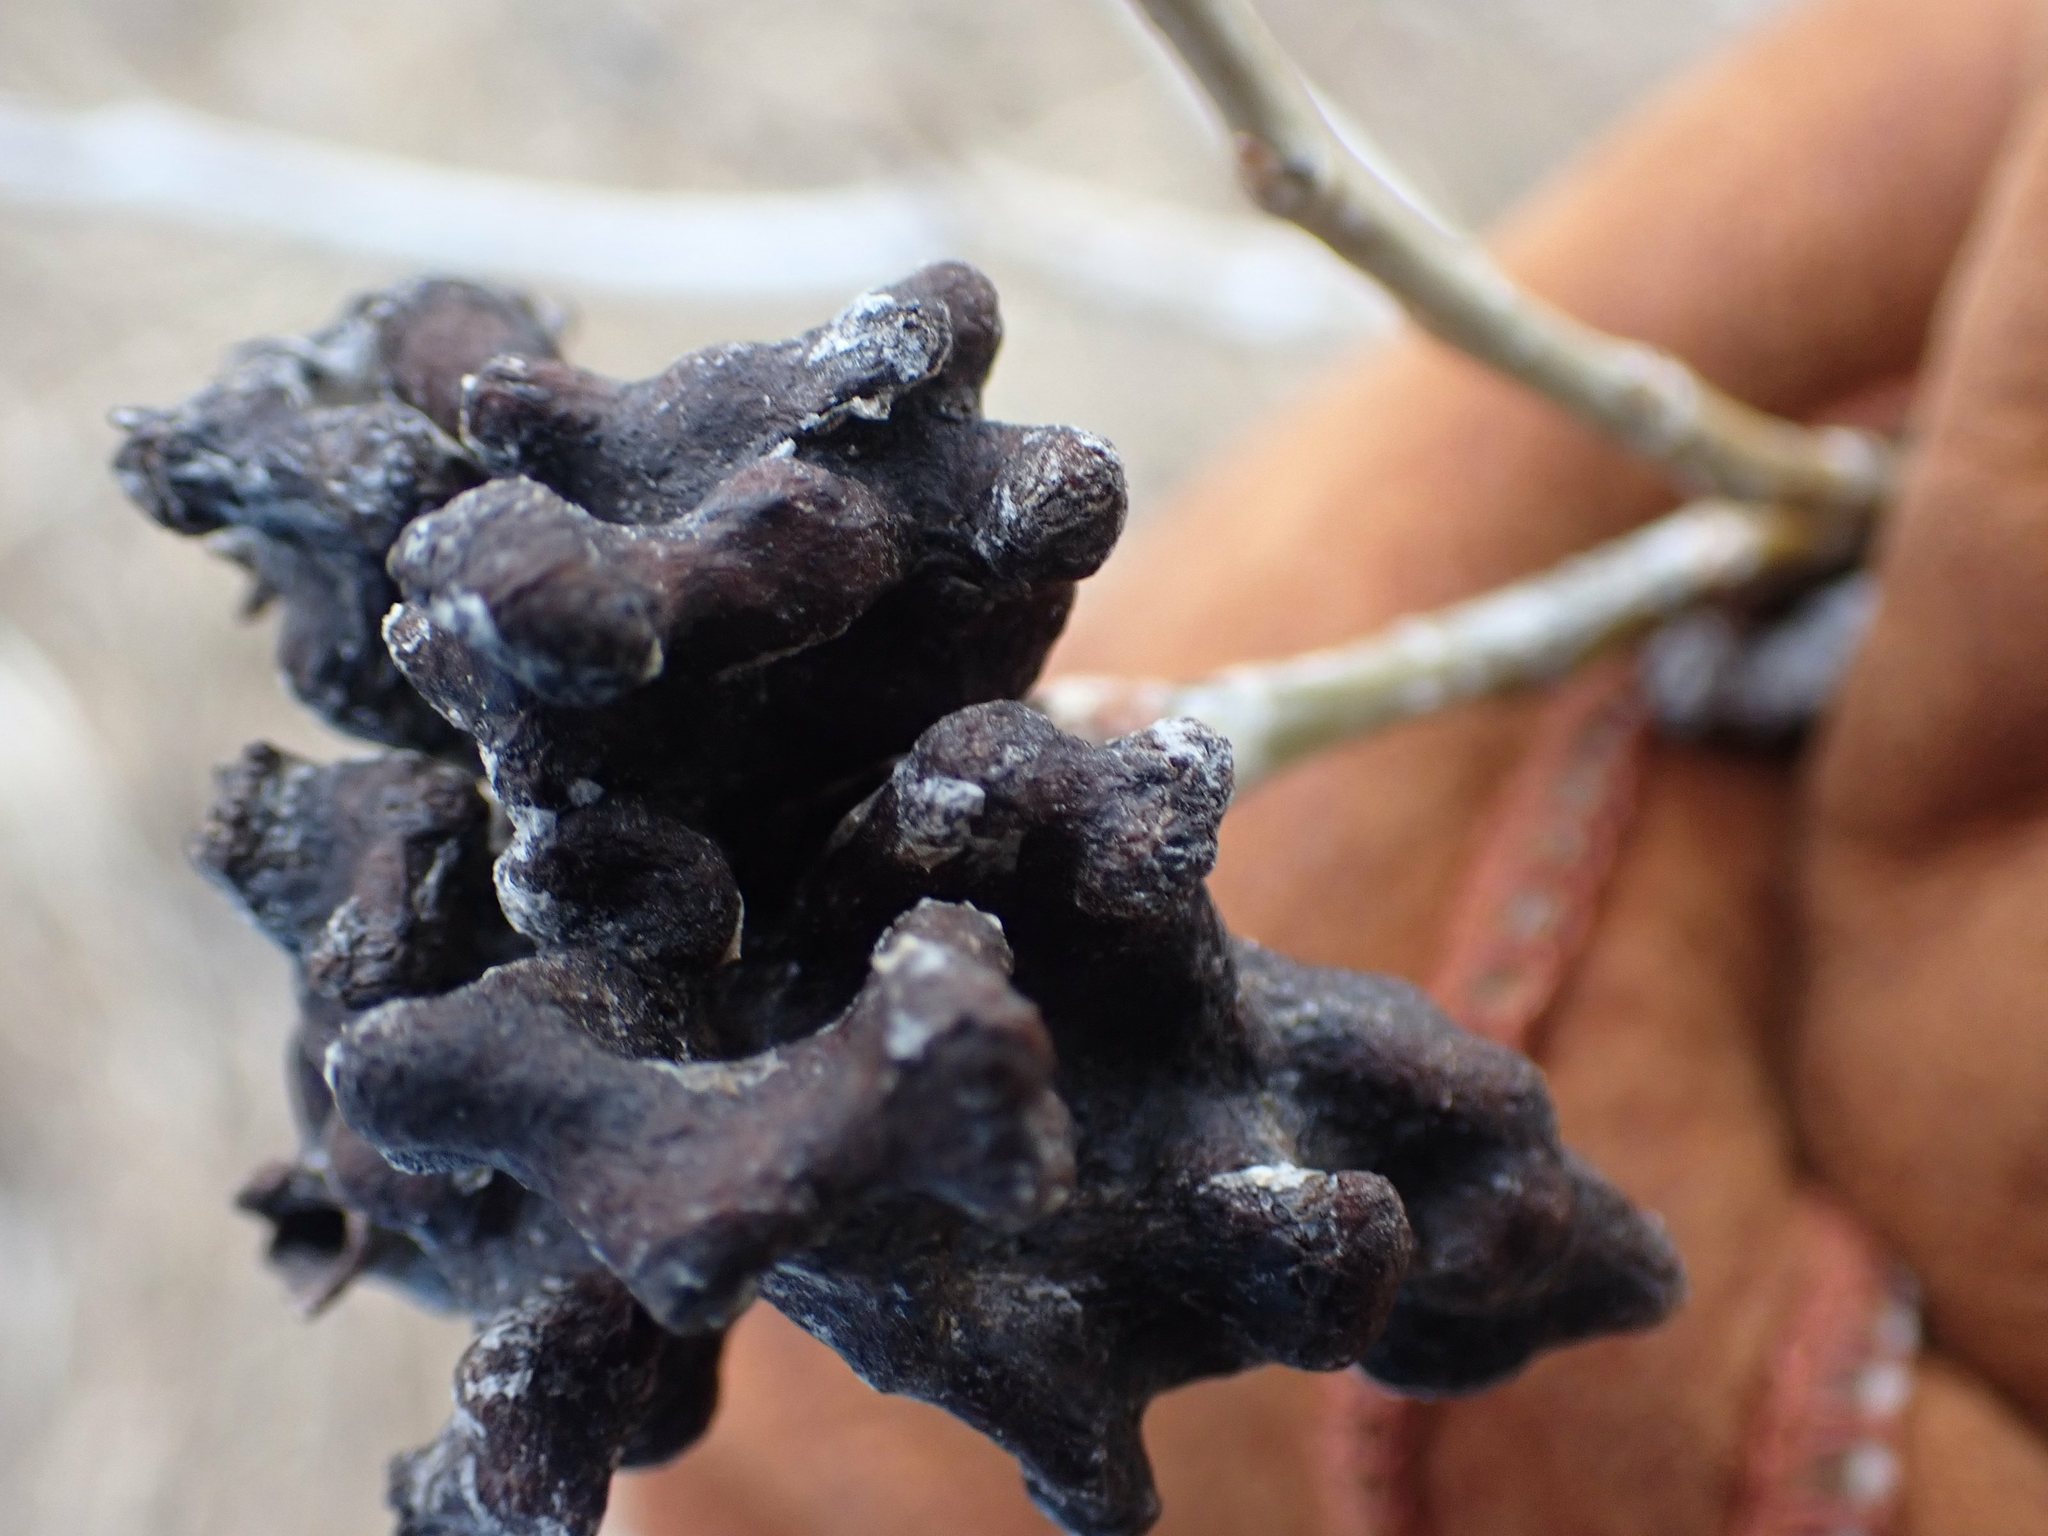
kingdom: Animalia
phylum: Arthropoda
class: Insecta
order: Hemiptera
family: Aphididae
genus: Mordwilkoja
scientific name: Mordwilkoja vagabunda
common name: Poplar vagabond aphid
